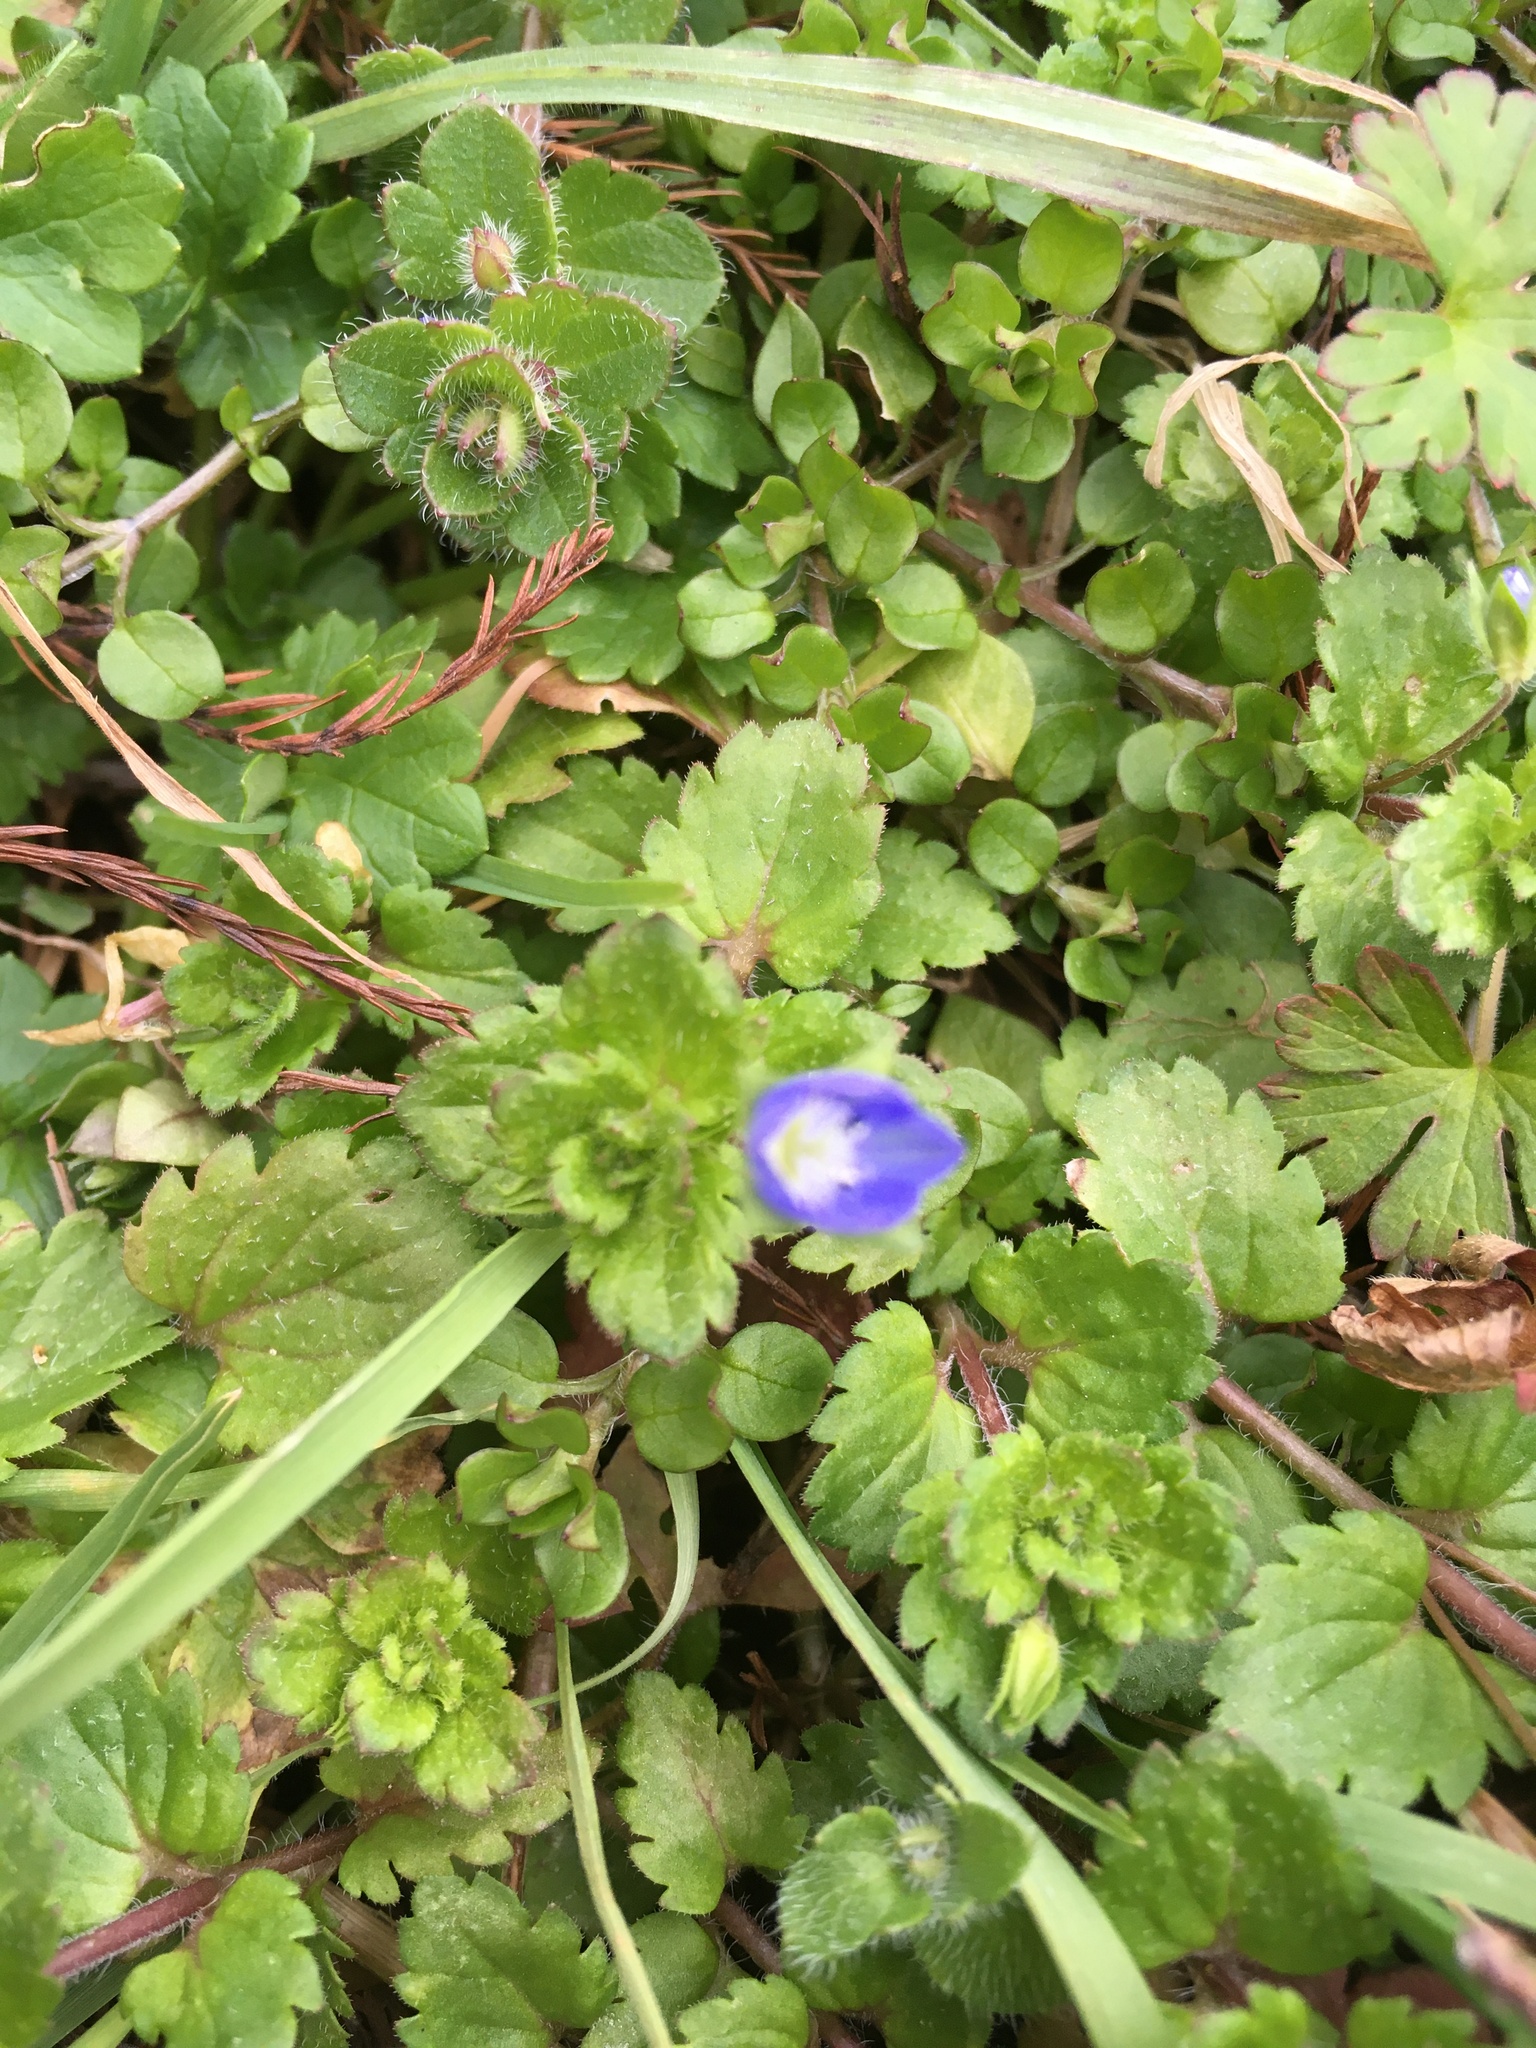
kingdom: Plantae
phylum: Tracheophyta
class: Magnoliopsida
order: Lamiales
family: Plantaginaceae
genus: Veronica
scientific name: Veronica persica
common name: Common field-speedwell
